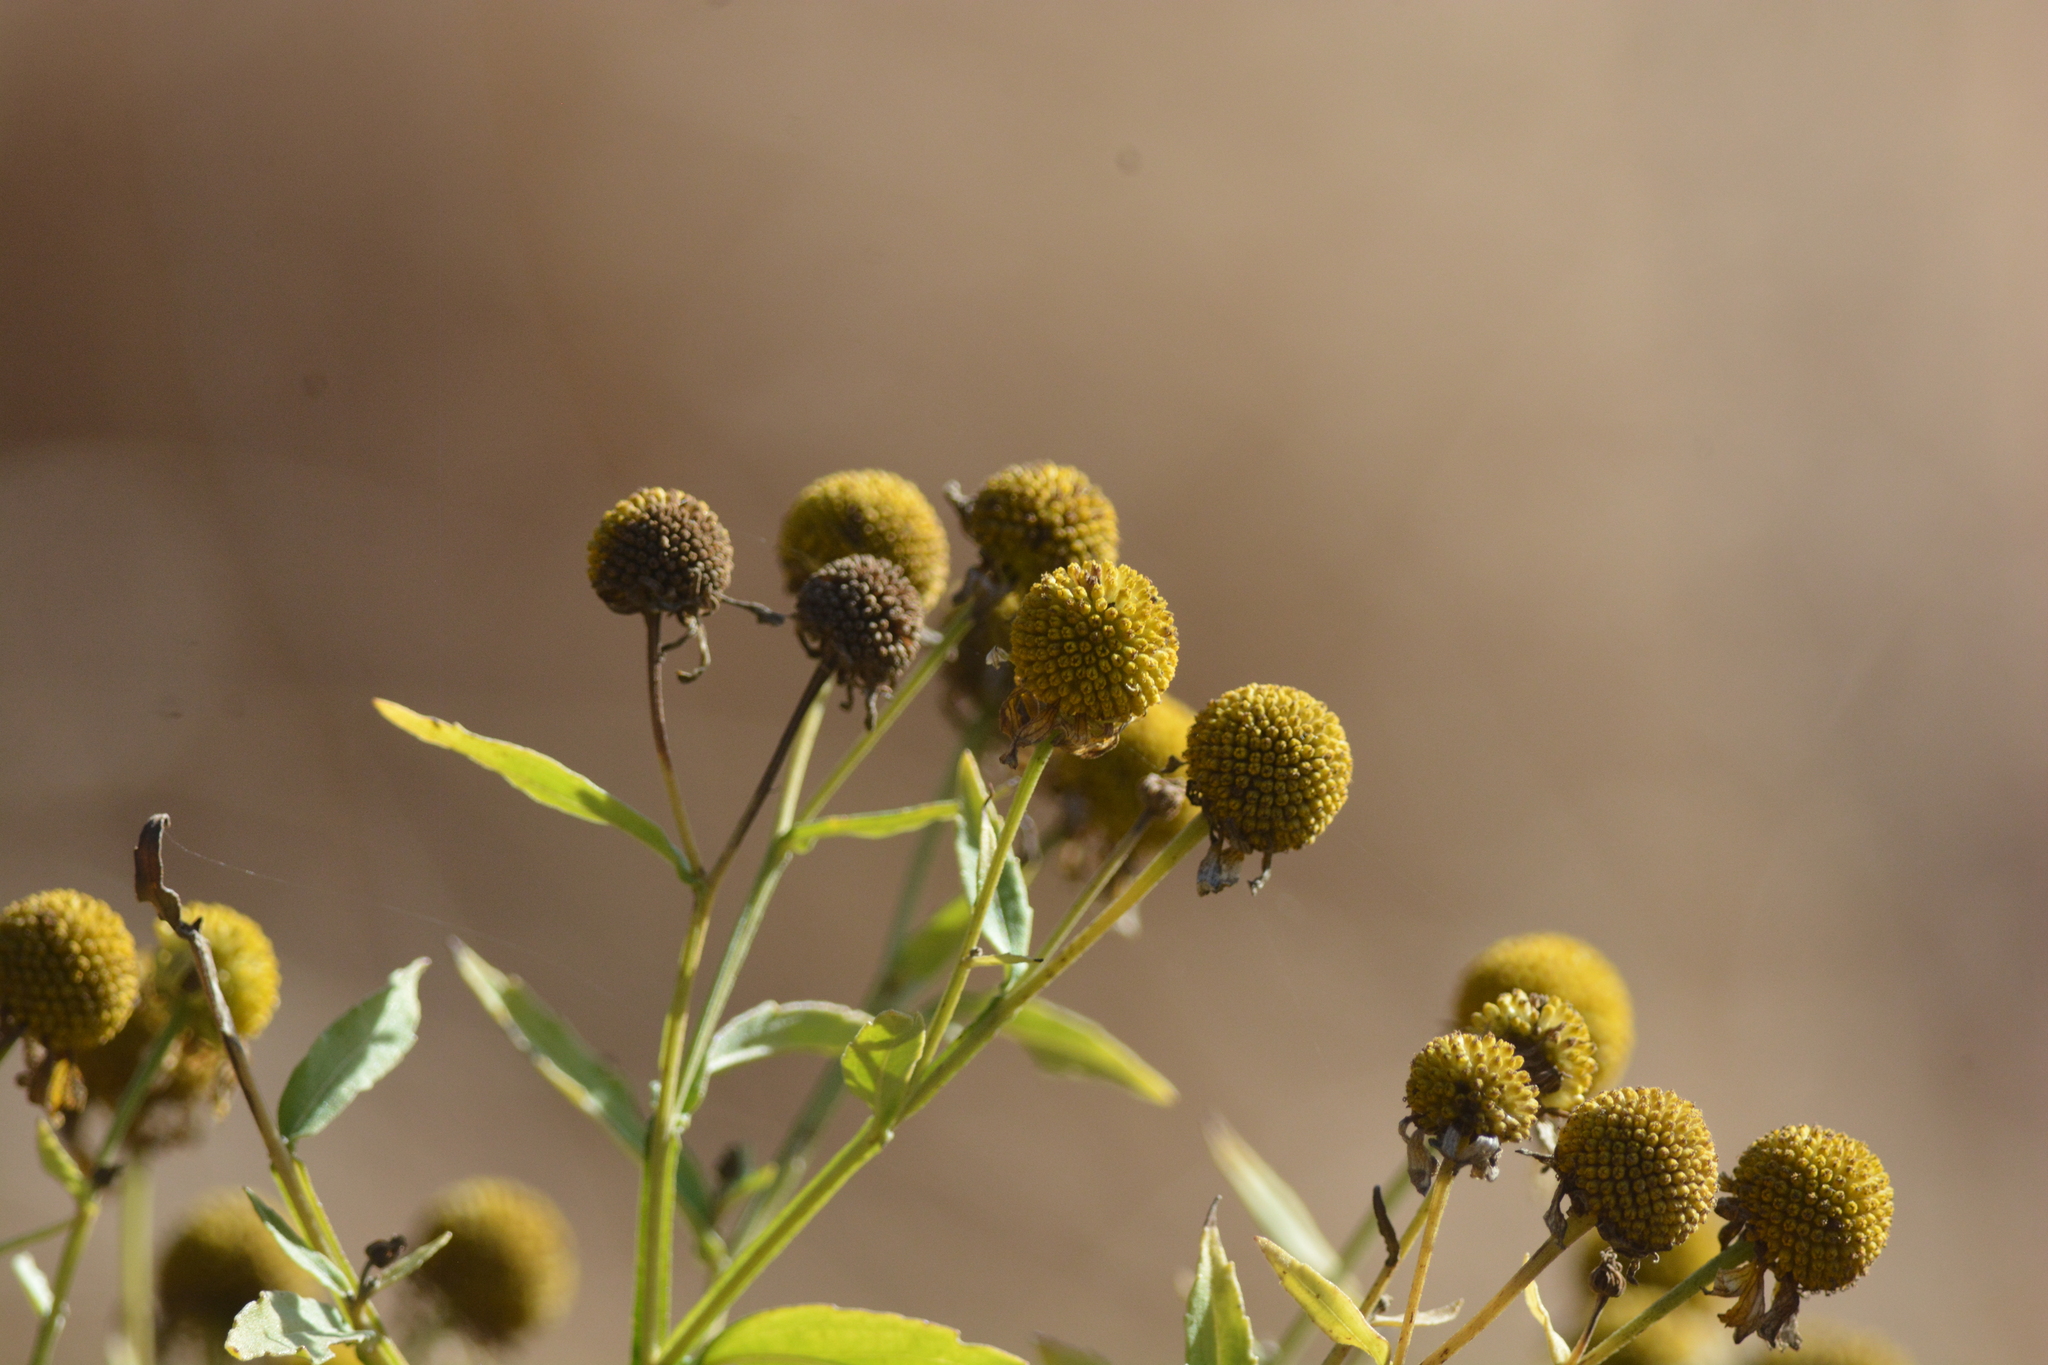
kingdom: Plantae
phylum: Tracheophyta
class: Magnoliopsida
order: Asterales
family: Asteraceae
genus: Helenium
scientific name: Helenium autumnale
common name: Sneezeweed
